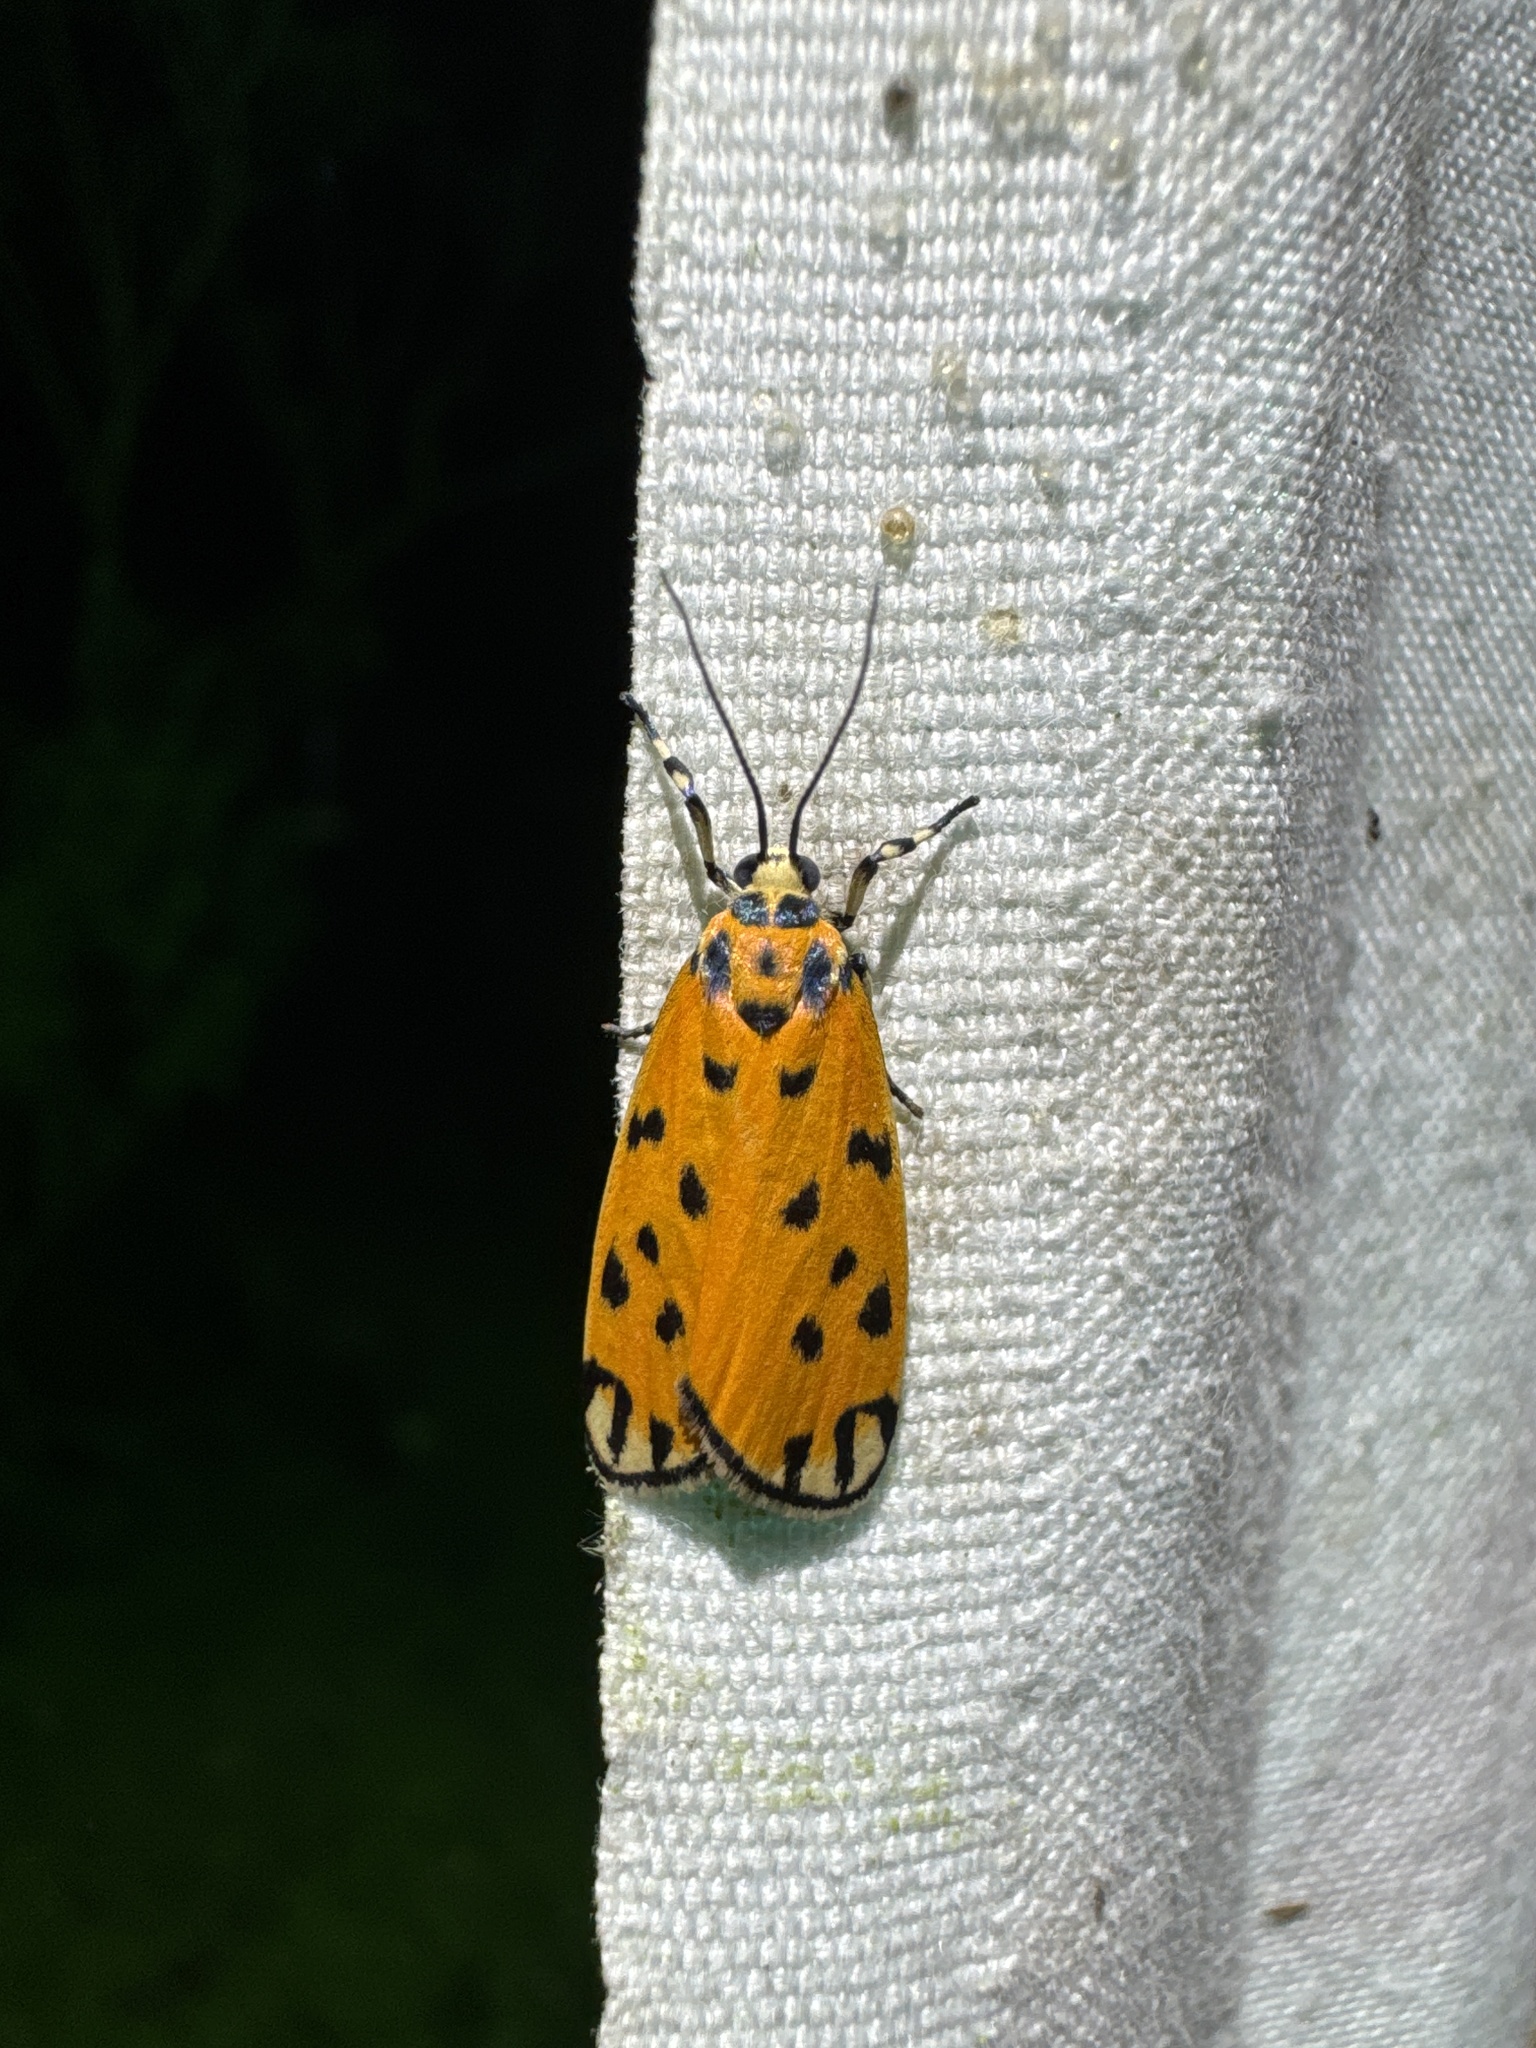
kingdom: Animalia
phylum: Arthropoda
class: Insecta
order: Lepidoptera
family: Erebidae
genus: Clemensia
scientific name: Clemensia donuca
